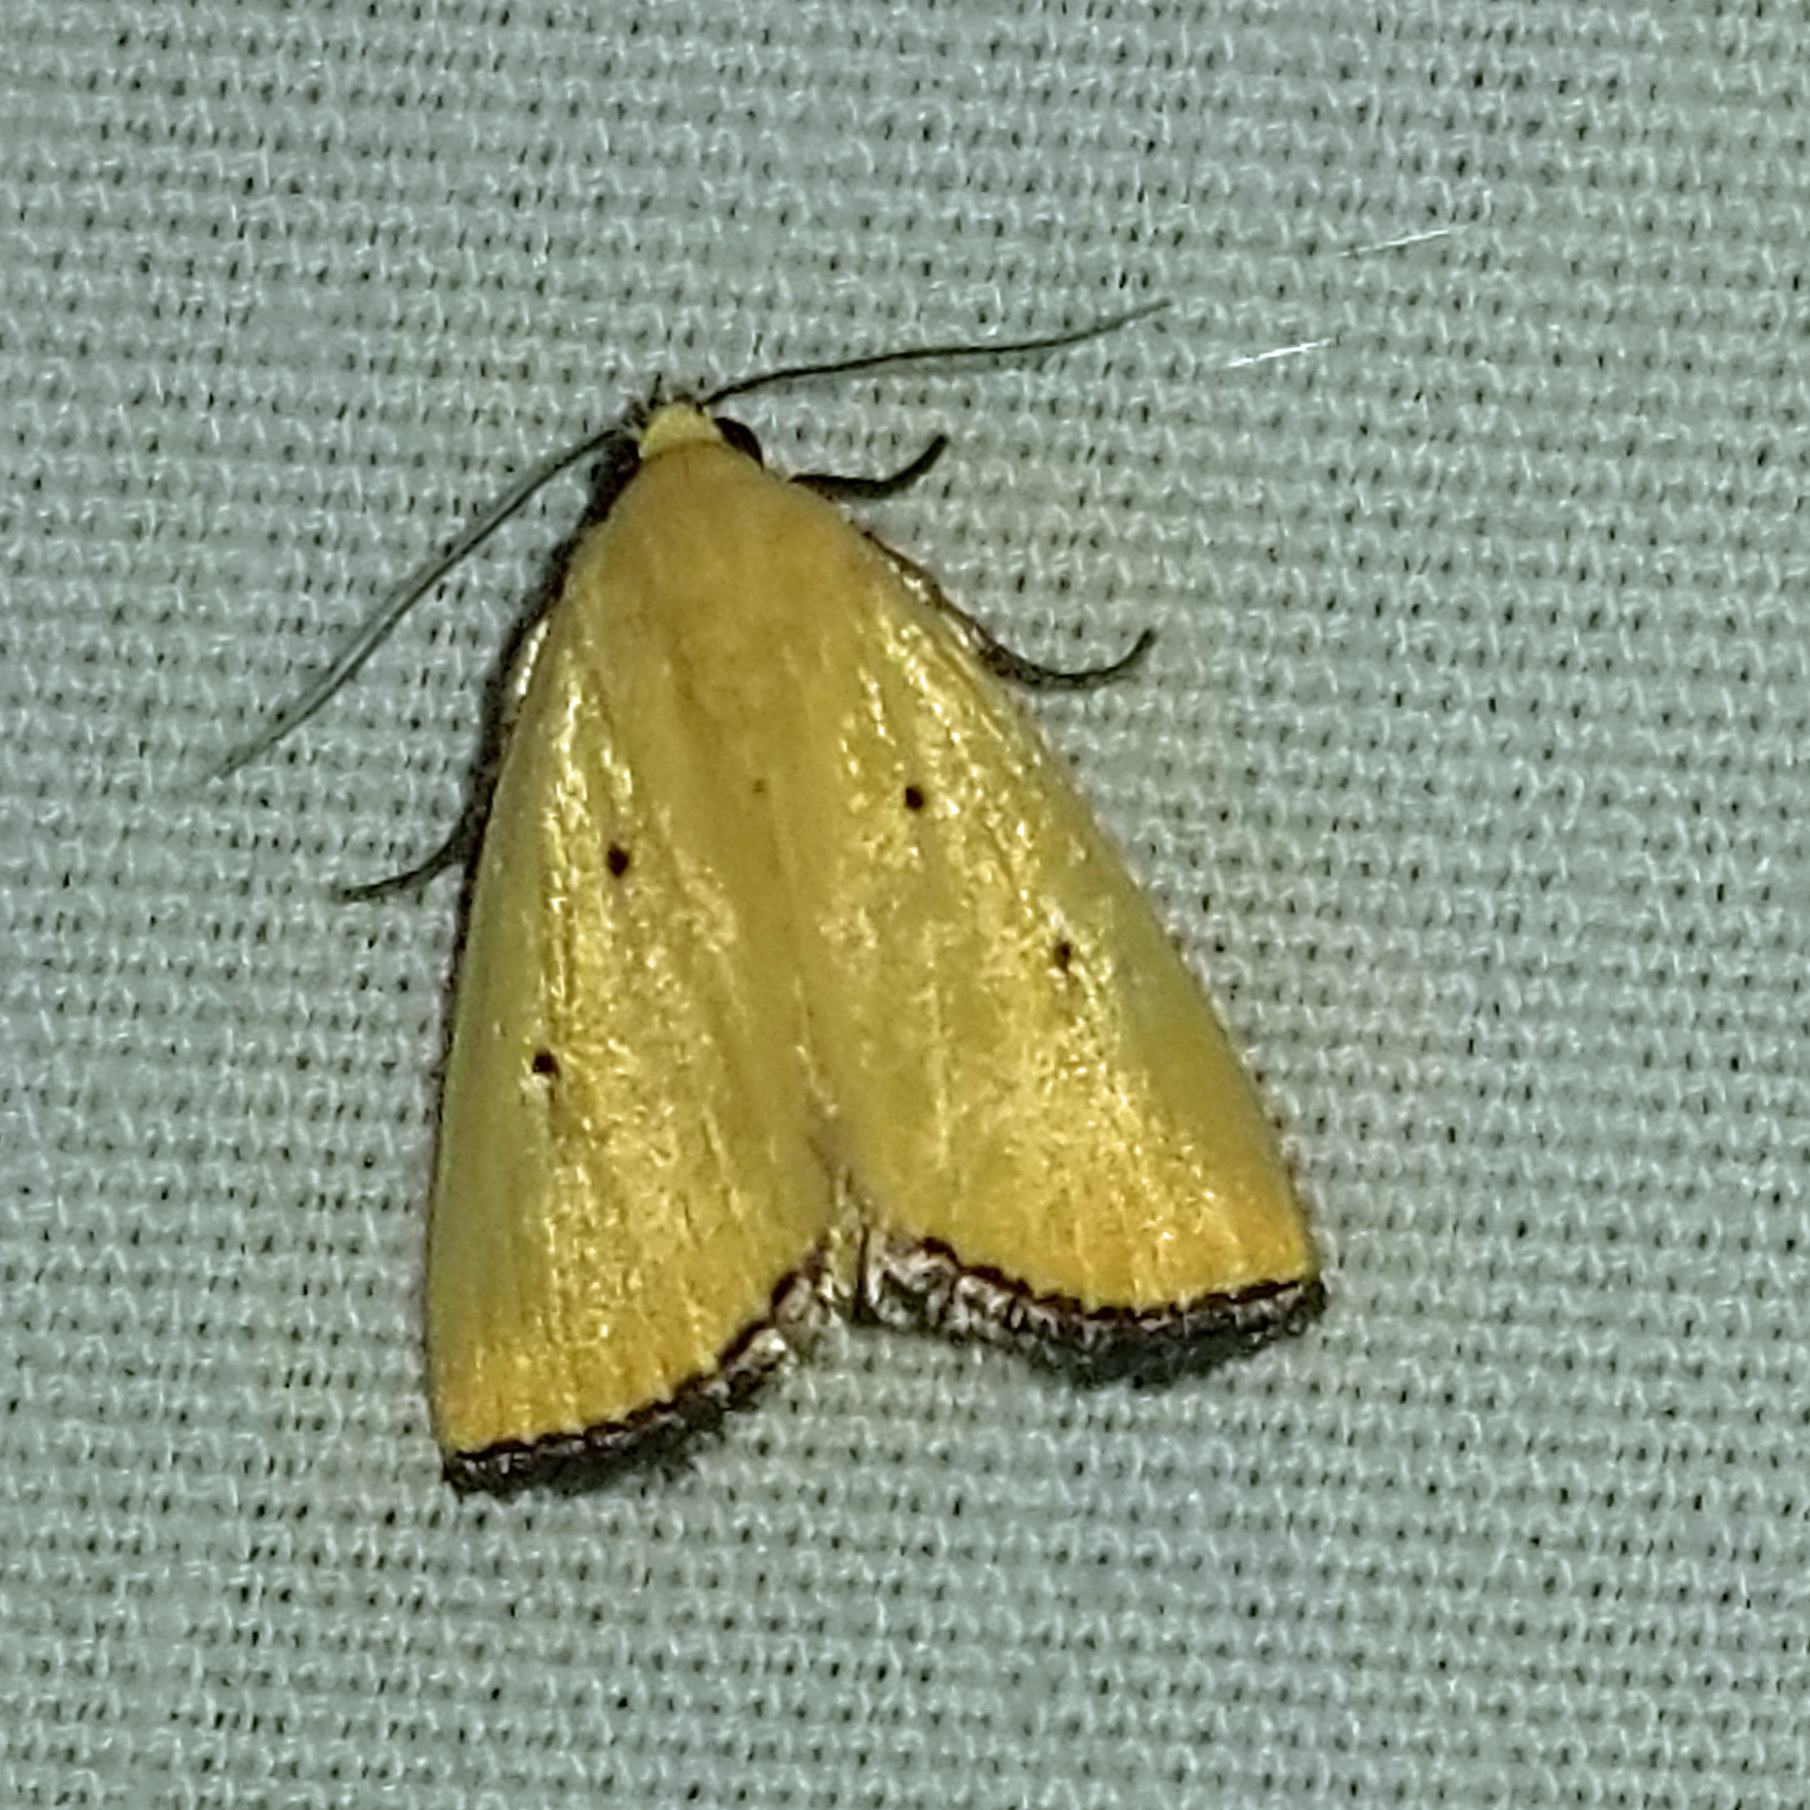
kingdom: Animalia
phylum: Arthropoda
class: Insecta
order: Lepidoptera
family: Noctuidae
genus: Marimatha
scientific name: Marimatha nigrofimbria
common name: Black-bordered lemon moth
